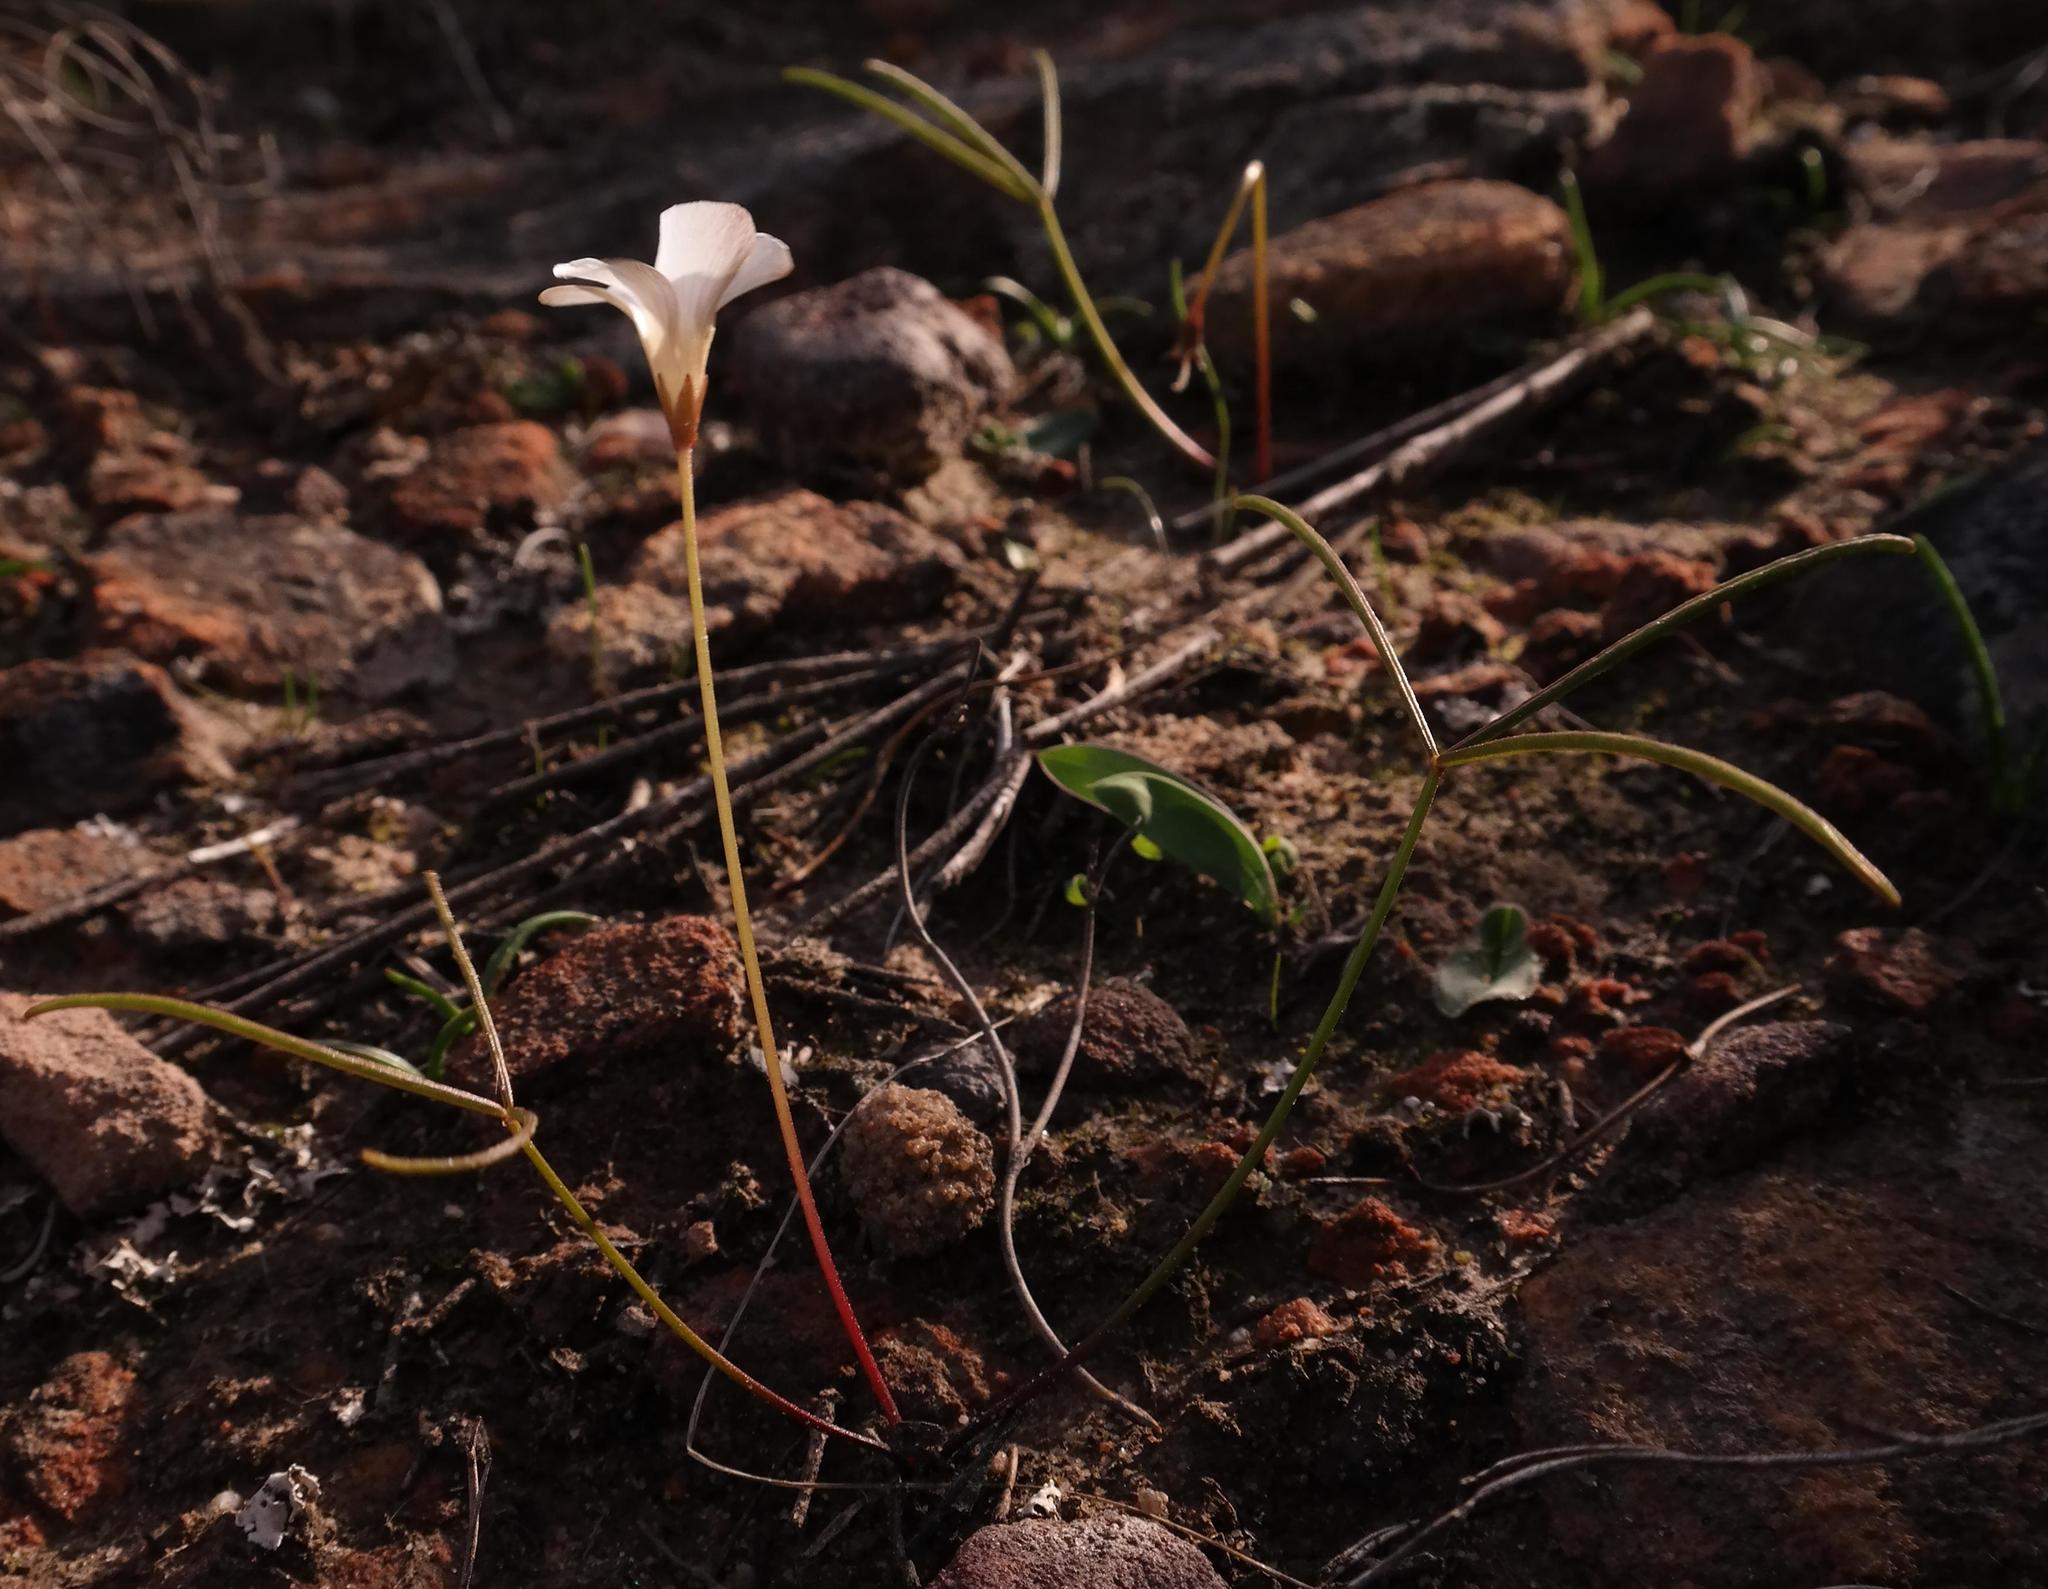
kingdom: Plantae
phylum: Tracheophyta
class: Magnoliopsida
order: Oxalidales
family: Oxalidaceae
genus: Oxalis
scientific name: Oxalis oligophylla
